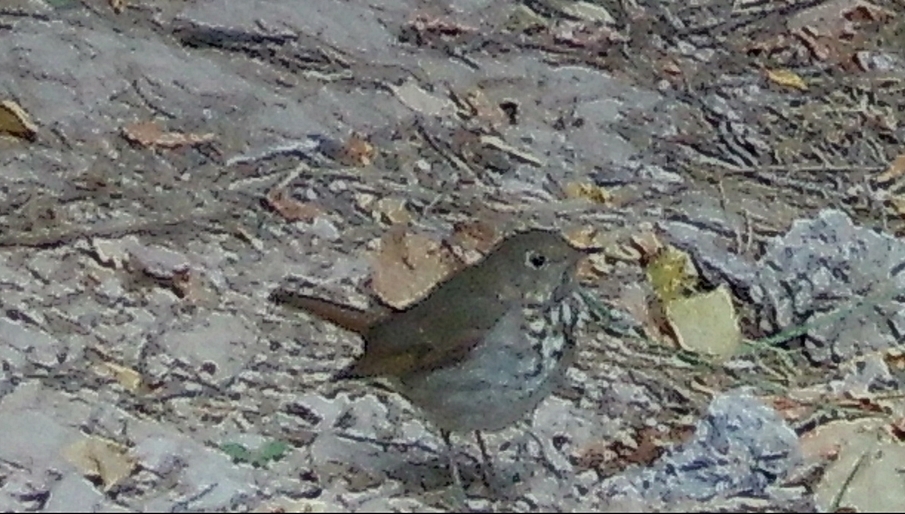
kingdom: Animalia
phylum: Chordata
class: Aves
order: Passeriformes
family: Turdidae
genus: Catharus
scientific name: Catharus guttatus
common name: Hermit thrush
